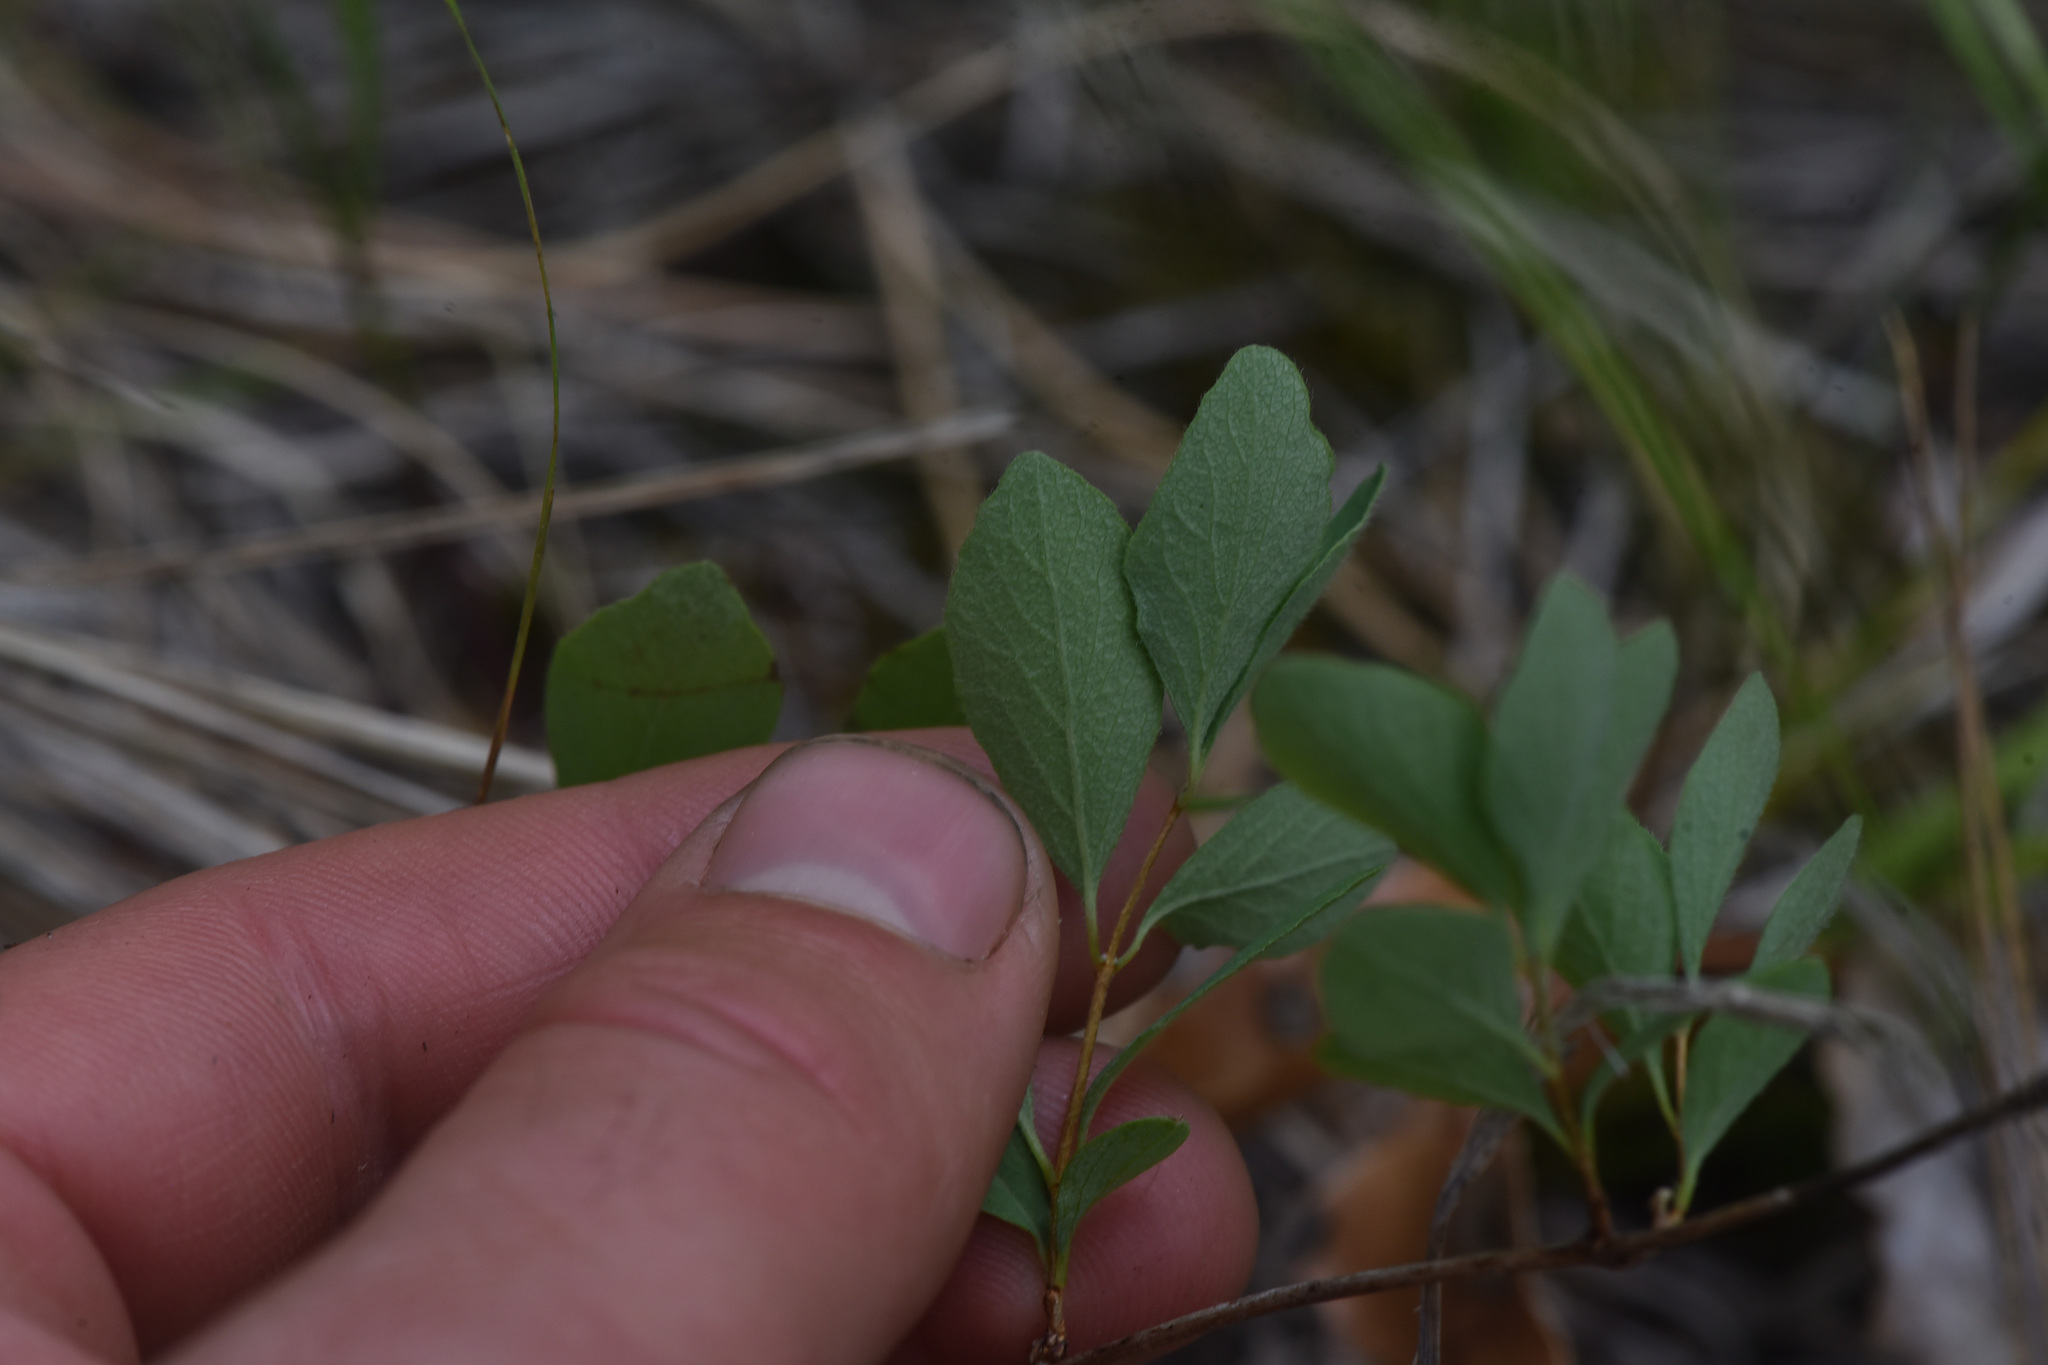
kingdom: Plantae
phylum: Tracheophyta
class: Magnoliopsida
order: Ericales
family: Ericaceae
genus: Vaccinium
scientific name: Vaccinium cespitosum
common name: Dwarf bilberry
